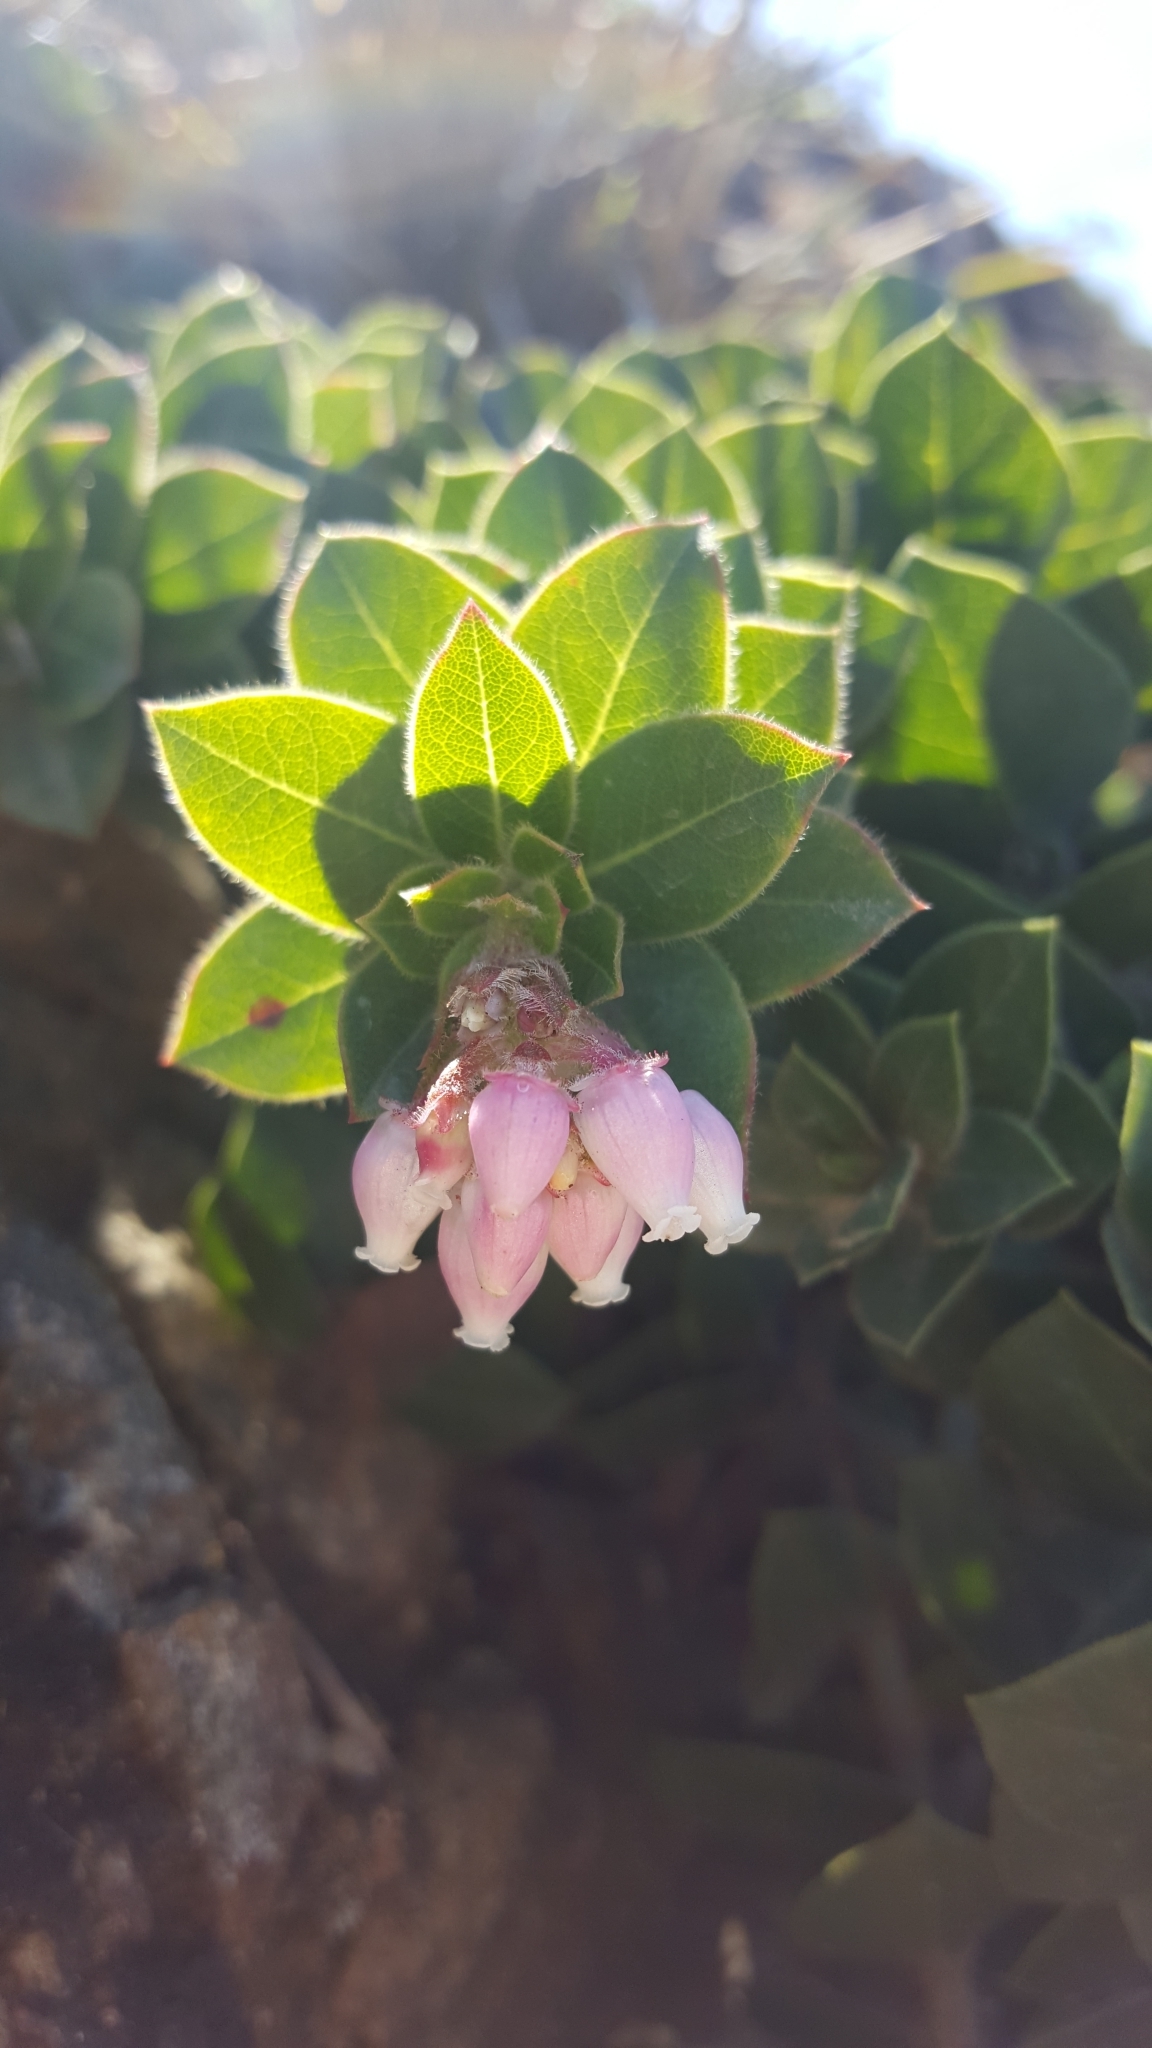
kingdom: Plantae
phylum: Tracheophyta
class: Magnoliopsida
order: Ericales
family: Ericaceae
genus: Arctostaphylos
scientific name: Arctostaphylos imbricata
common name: San bruno mountain manzanita
